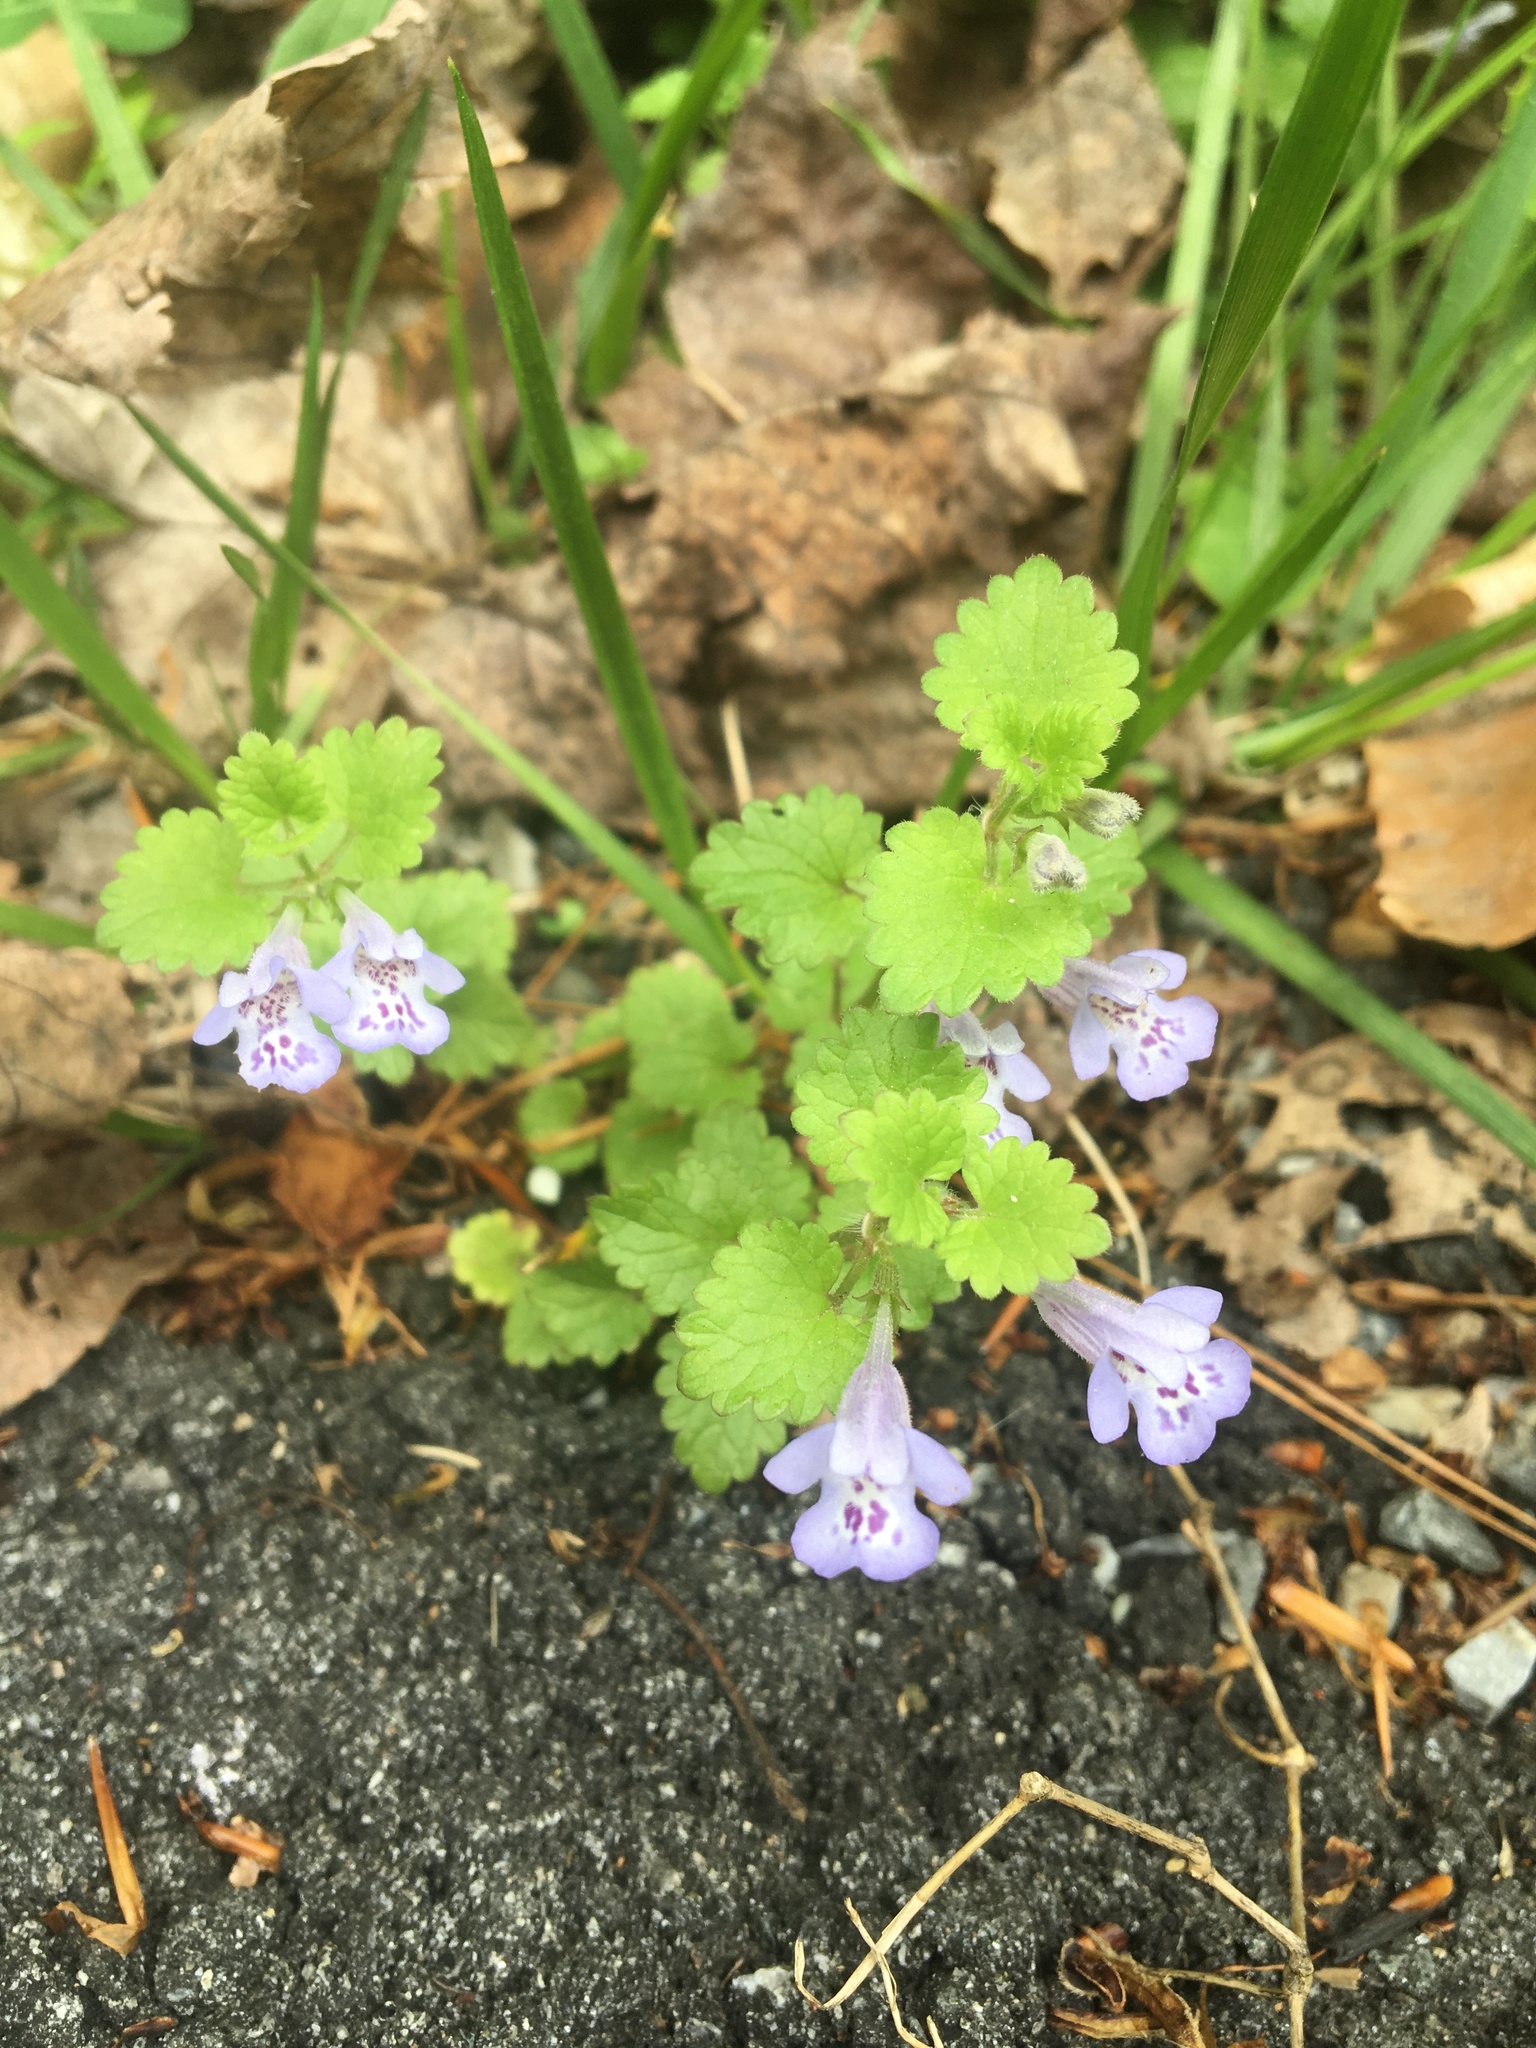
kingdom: Plantae
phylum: Tracheophyta
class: Magnoliopsida
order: Lamiales
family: Lamiaceae
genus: Glechoma
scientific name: Glechoma hederacea
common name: Ground ivy
